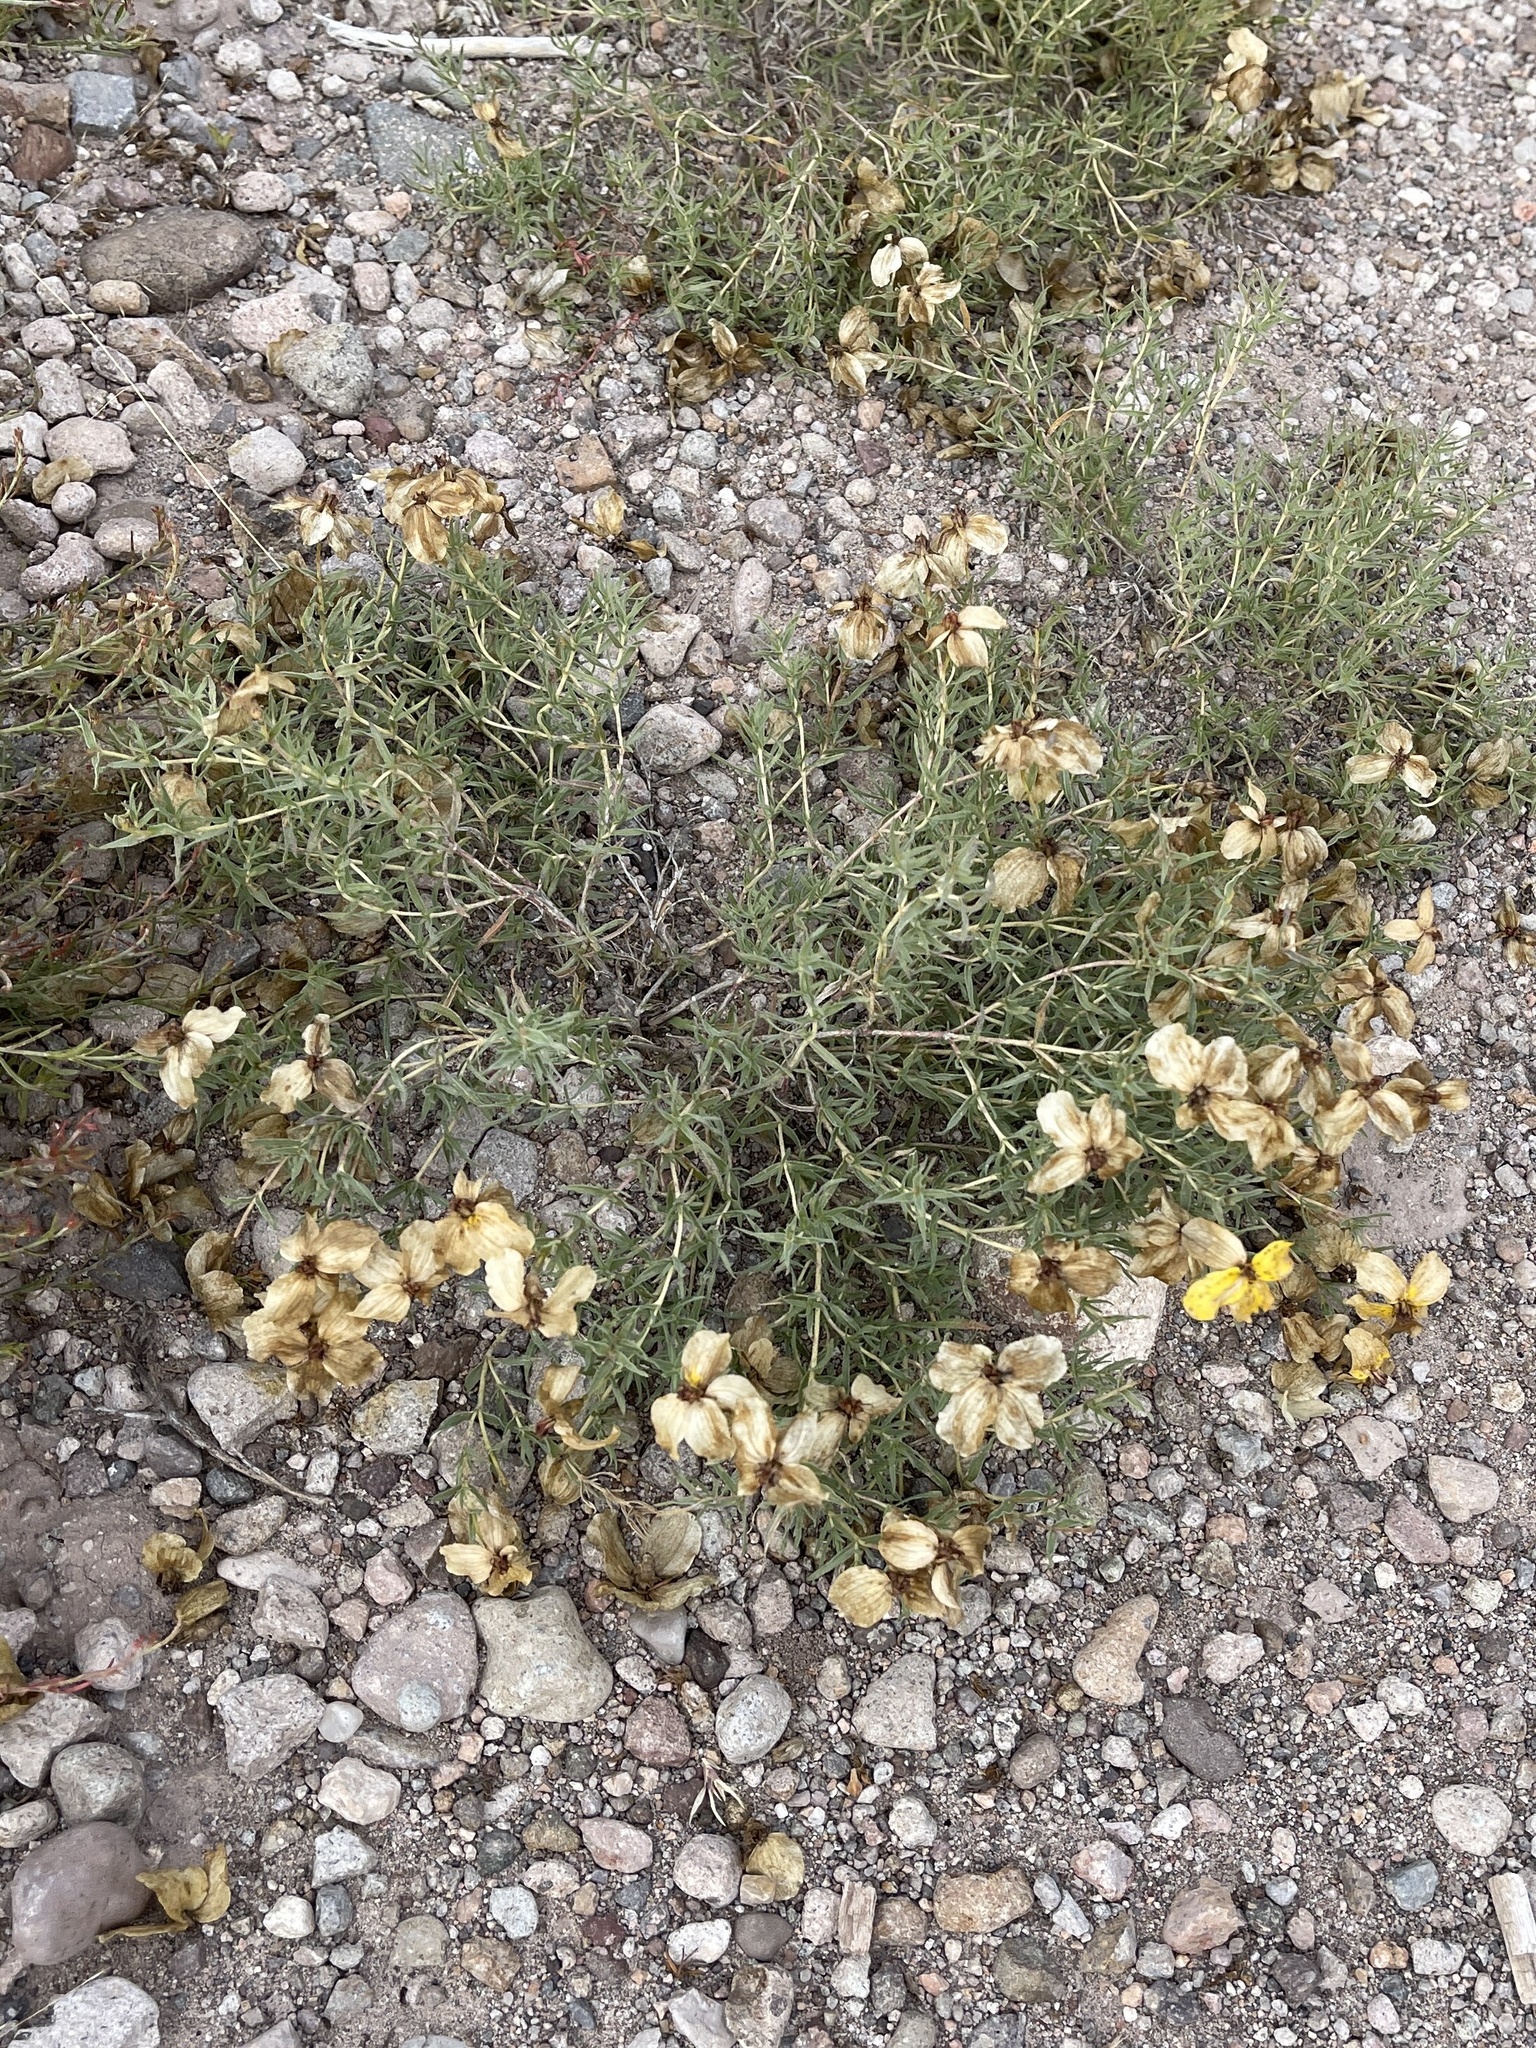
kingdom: Plantae
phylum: Tracheophyta
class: Magnoliopsida
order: Asterales
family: Asteraceae
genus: Zinnia
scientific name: Zinnia grandiflora
